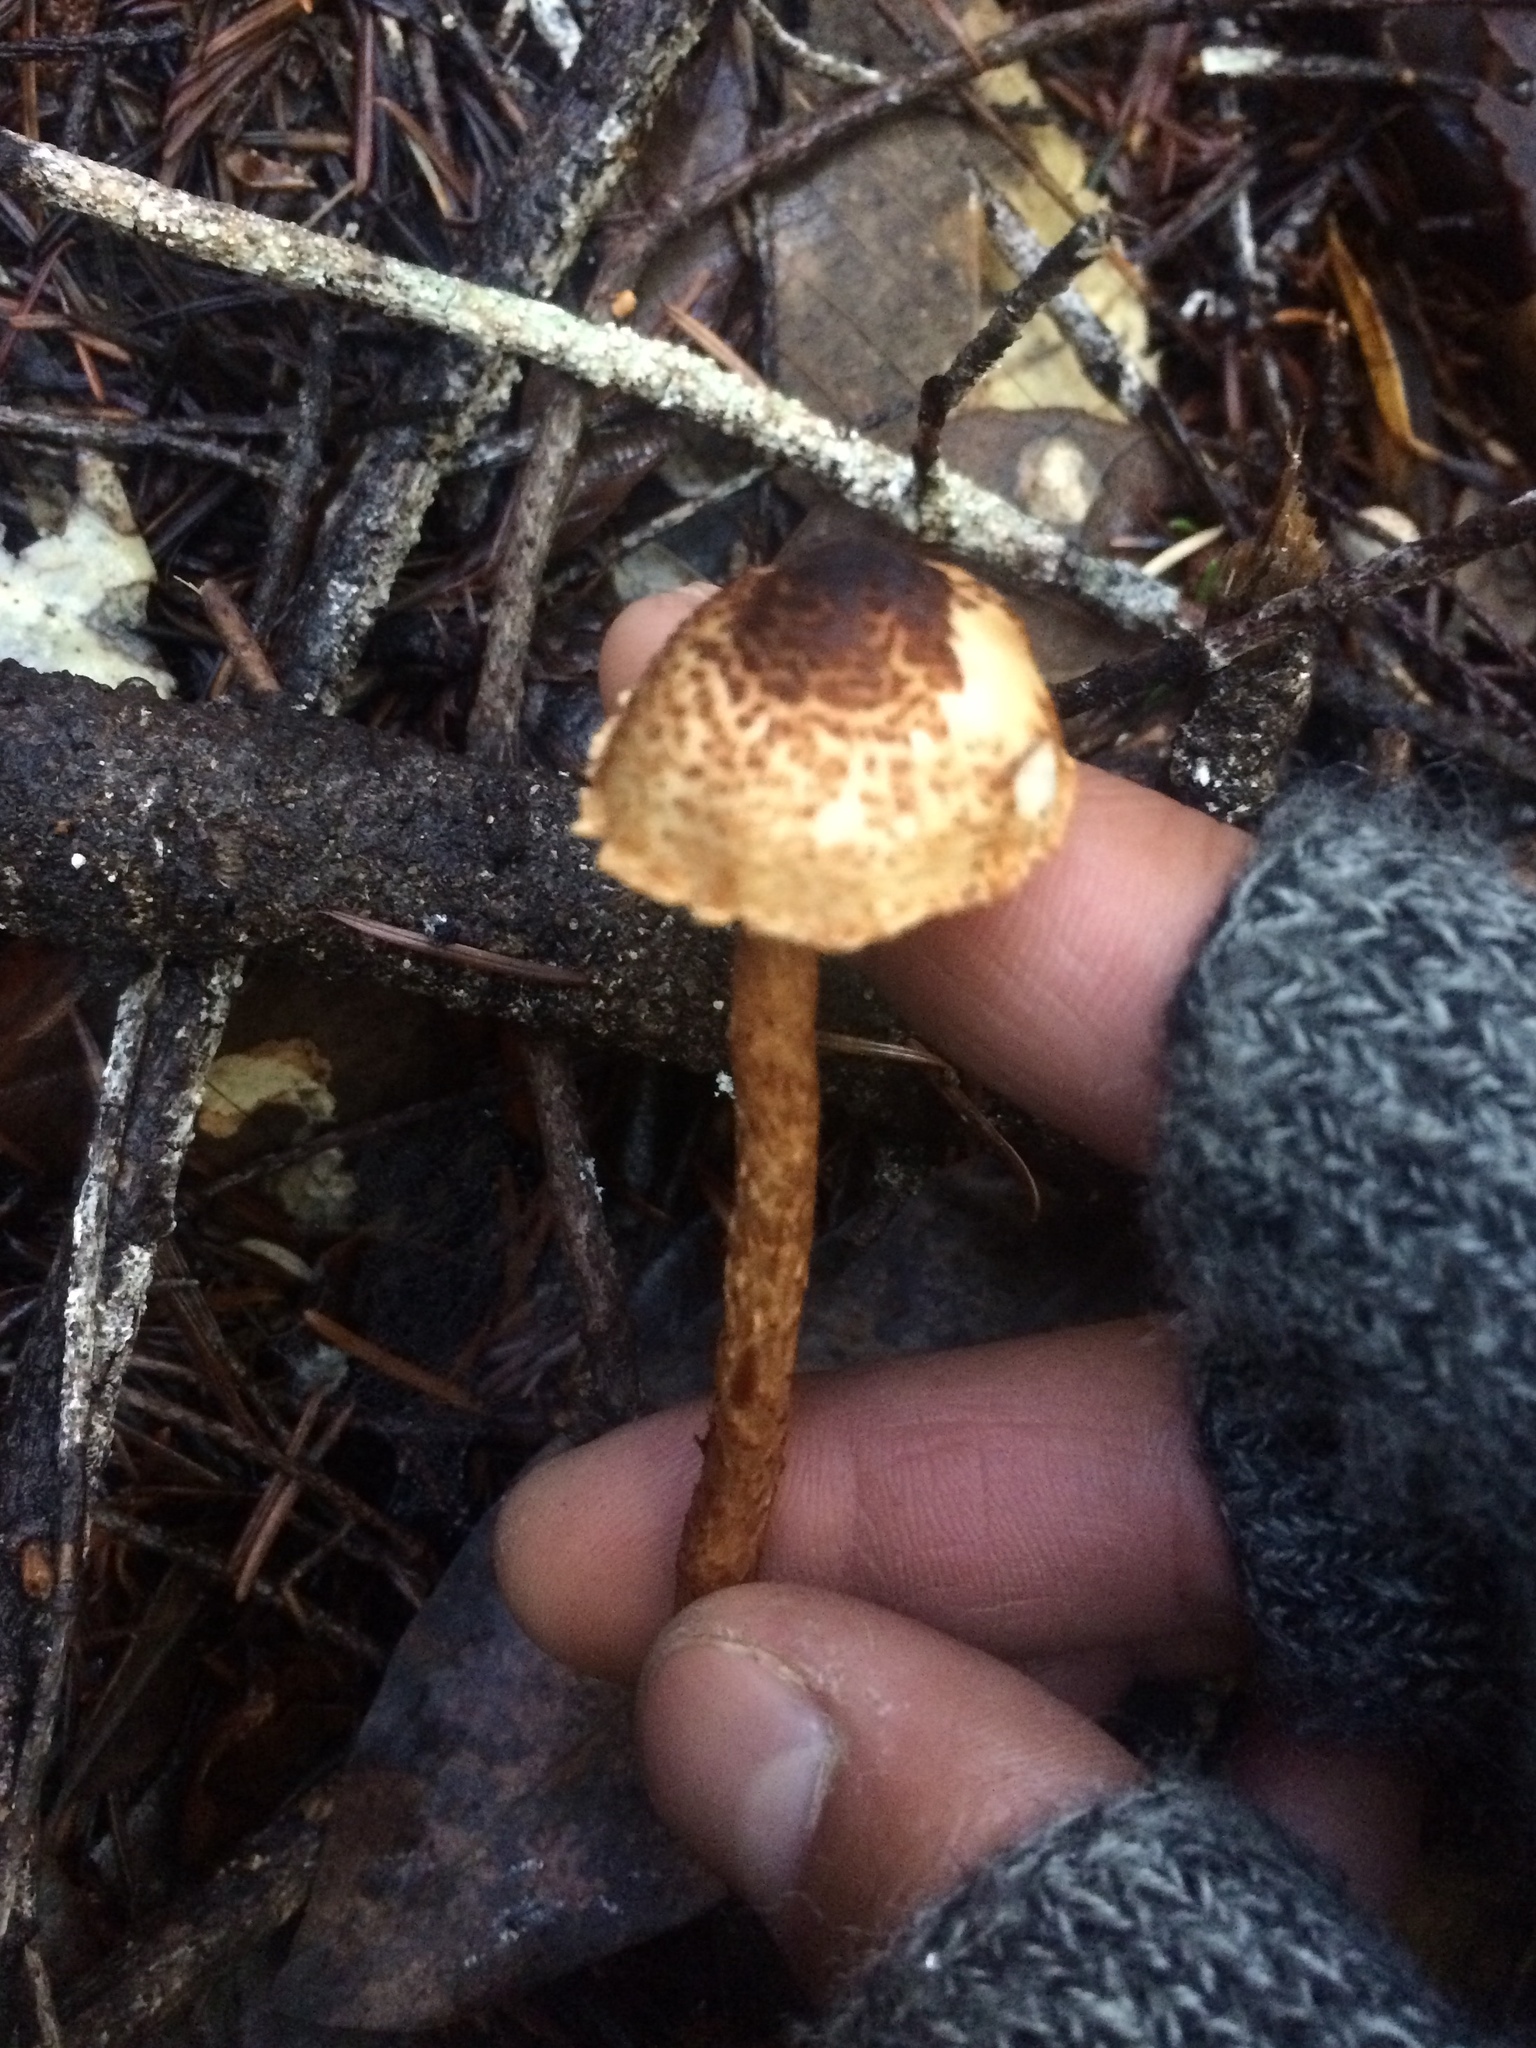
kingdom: Fungi
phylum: Basidiomycota
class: Agaricomycetes
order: Agaricales
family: Agaricaceae
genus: Lepiota
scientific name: Lepiota castanea
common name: Chestnut dapperling
